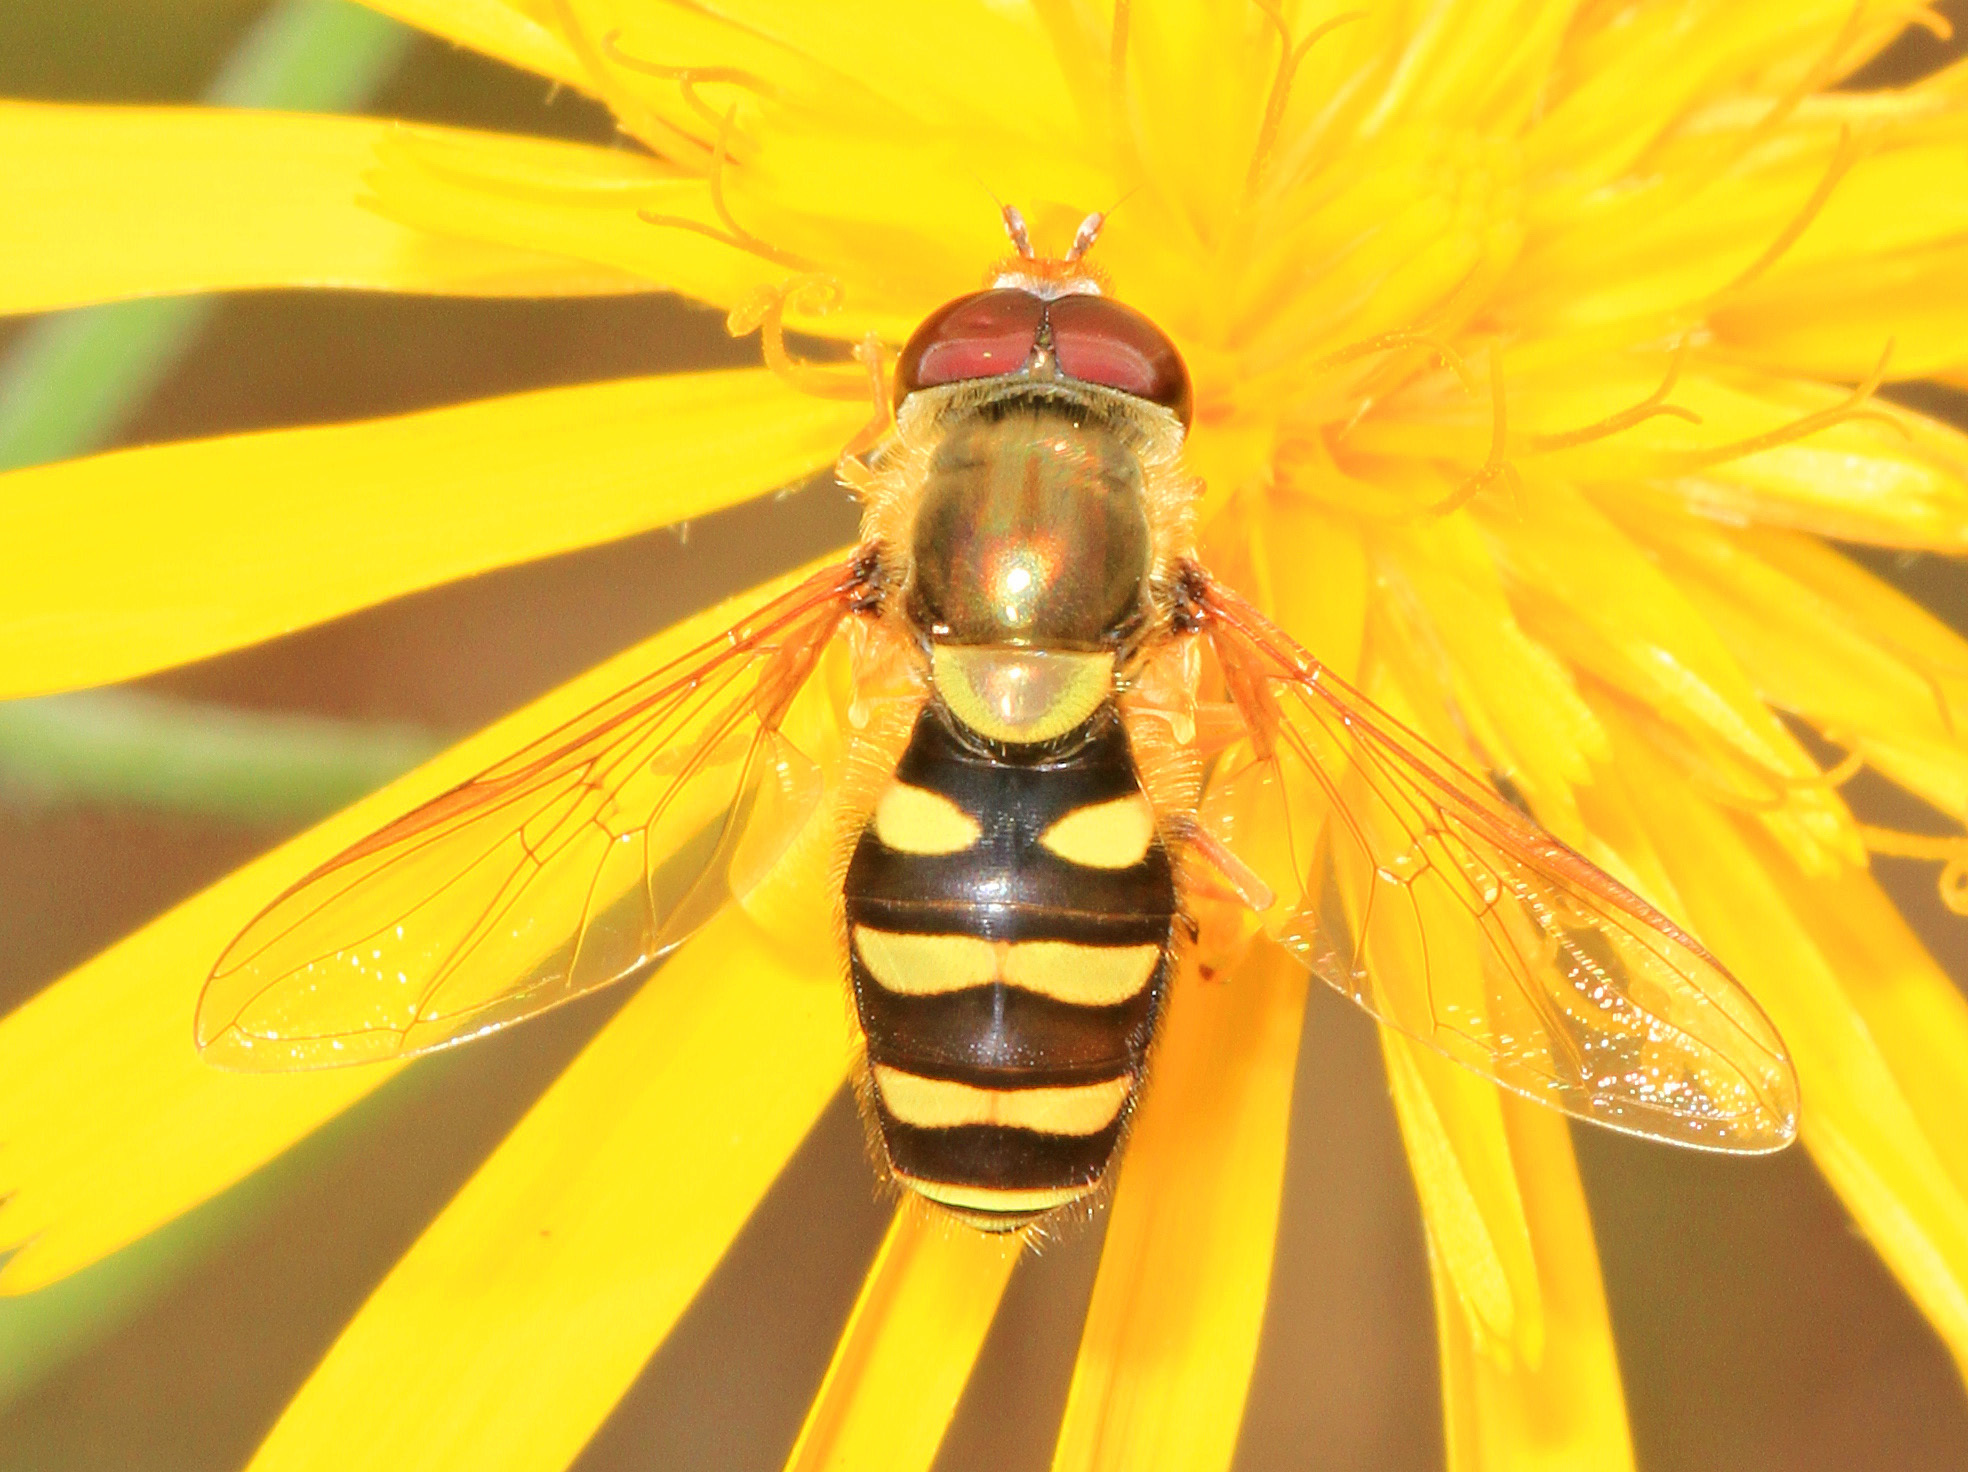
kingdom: Animalia
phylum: Arthropoda
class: Insecta
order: Diptera
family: Syrphidae
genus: Syrphus
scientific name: Syrphus opinator
